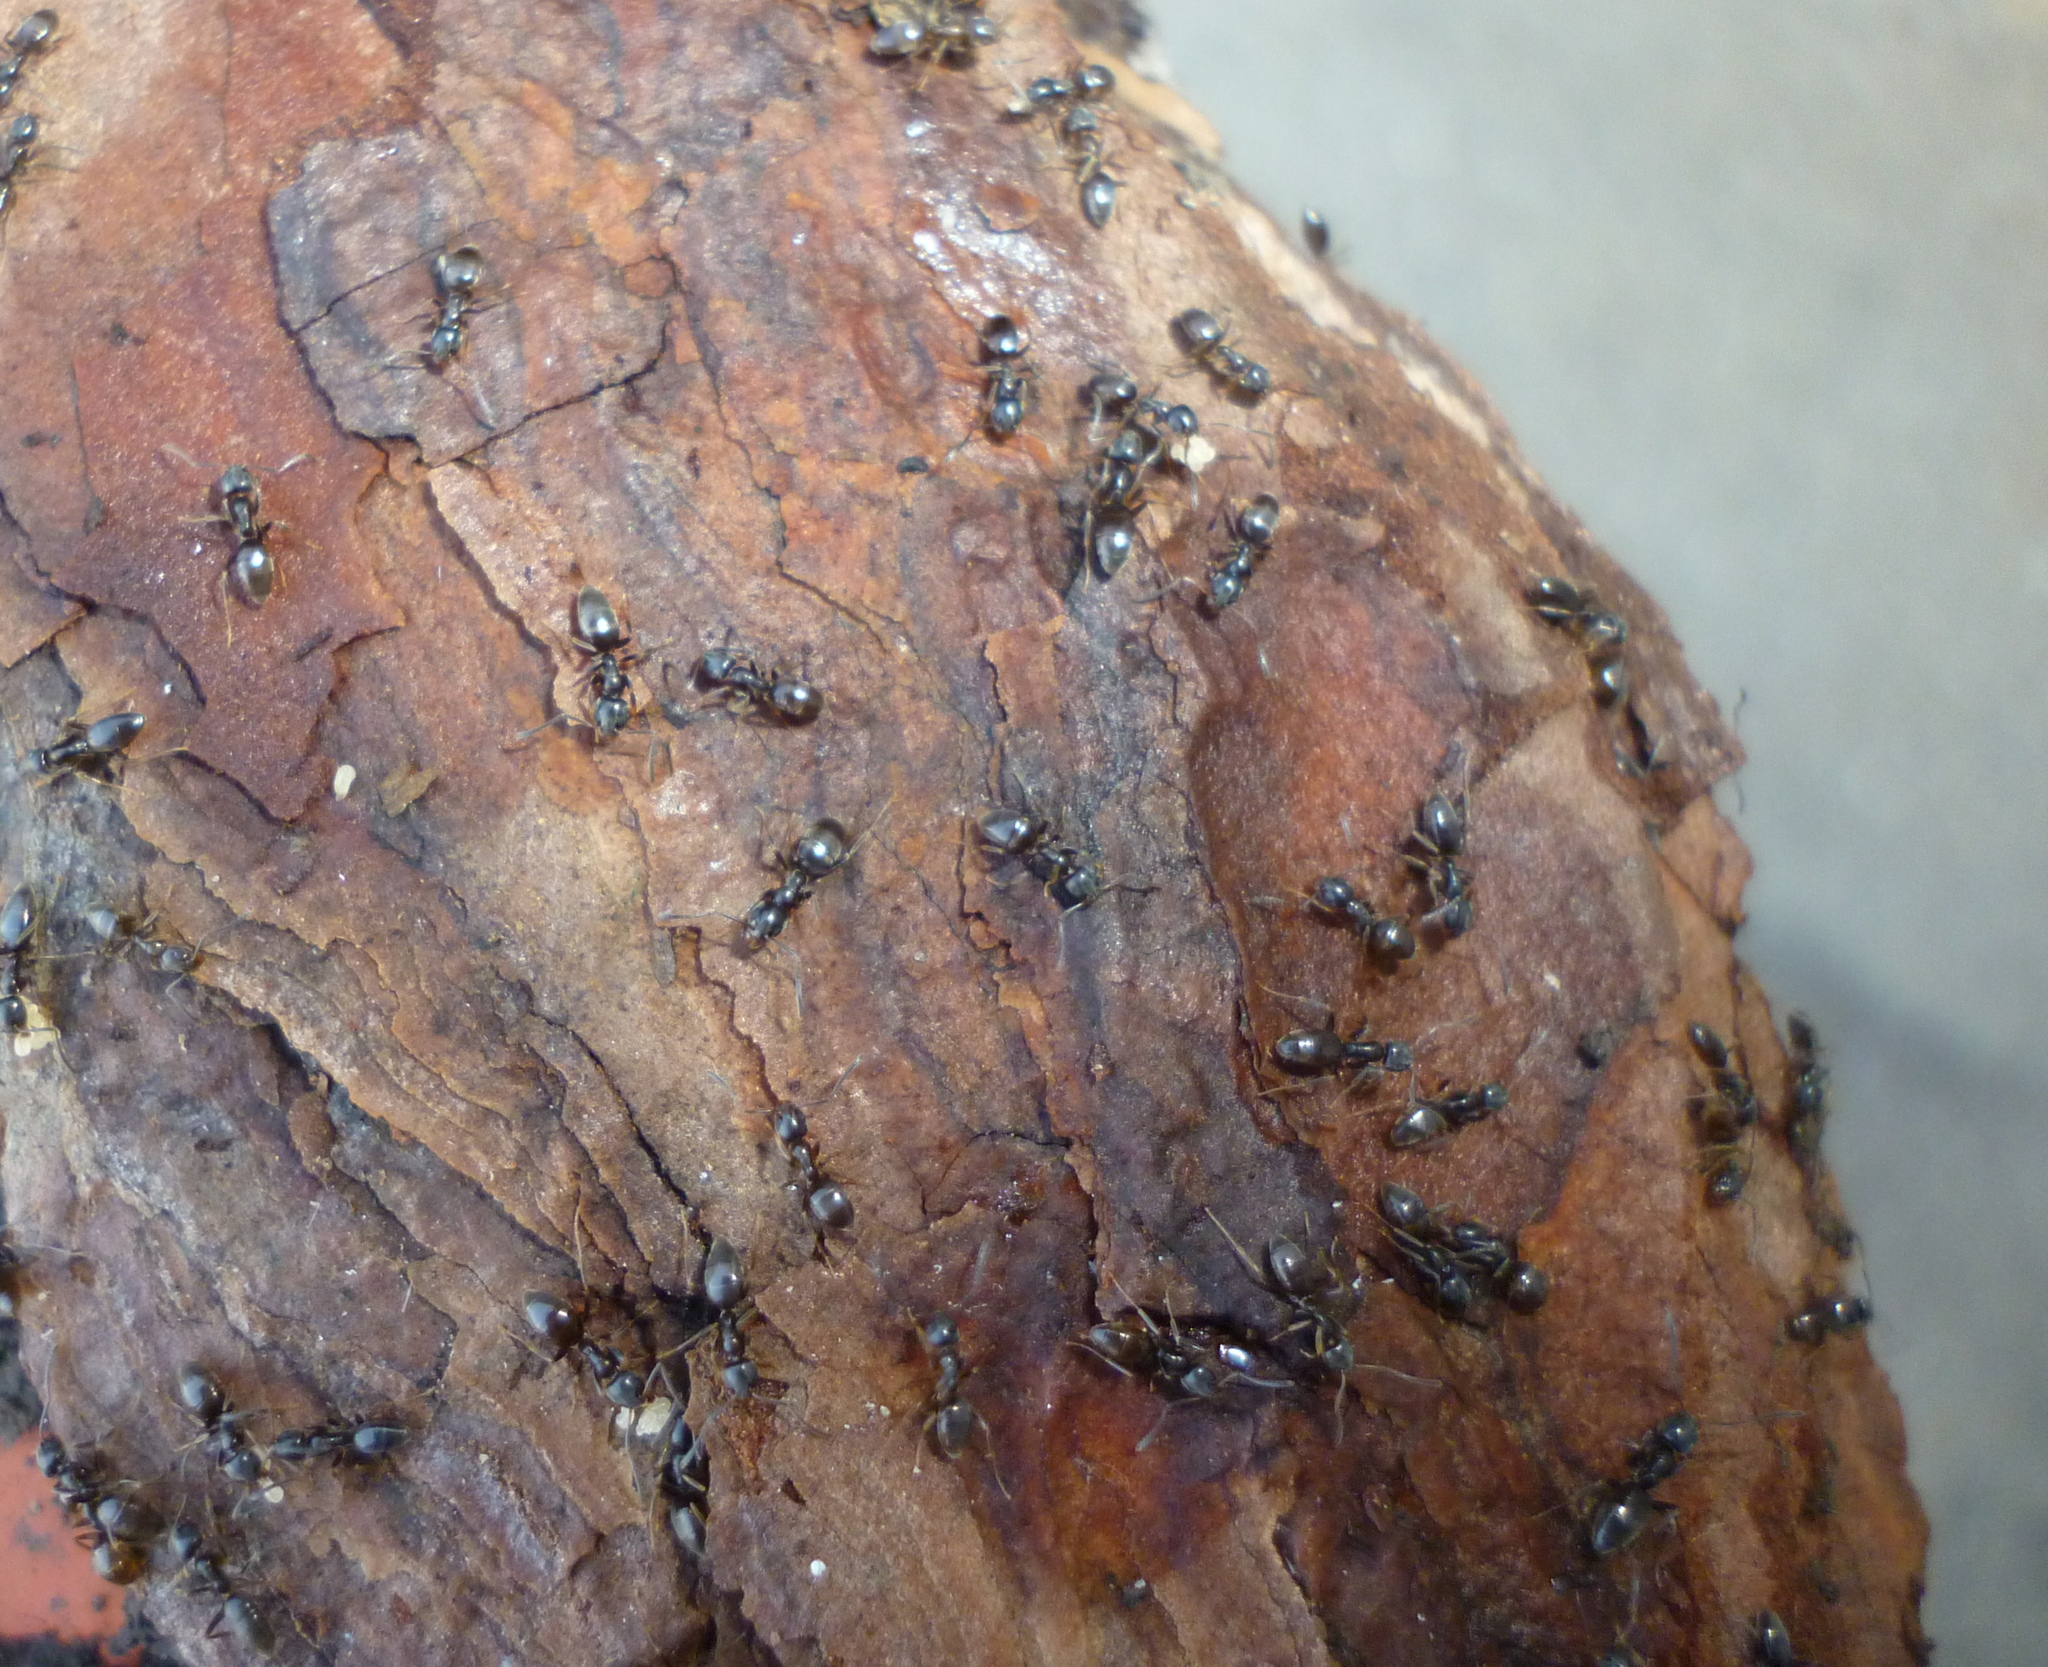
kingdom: Animalia
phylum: Arthropoda
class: Insecta
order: Hymenoptera
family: Formicidae
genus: Tapinoma
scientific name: Tapinoma sessile
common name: Odorous house ant
